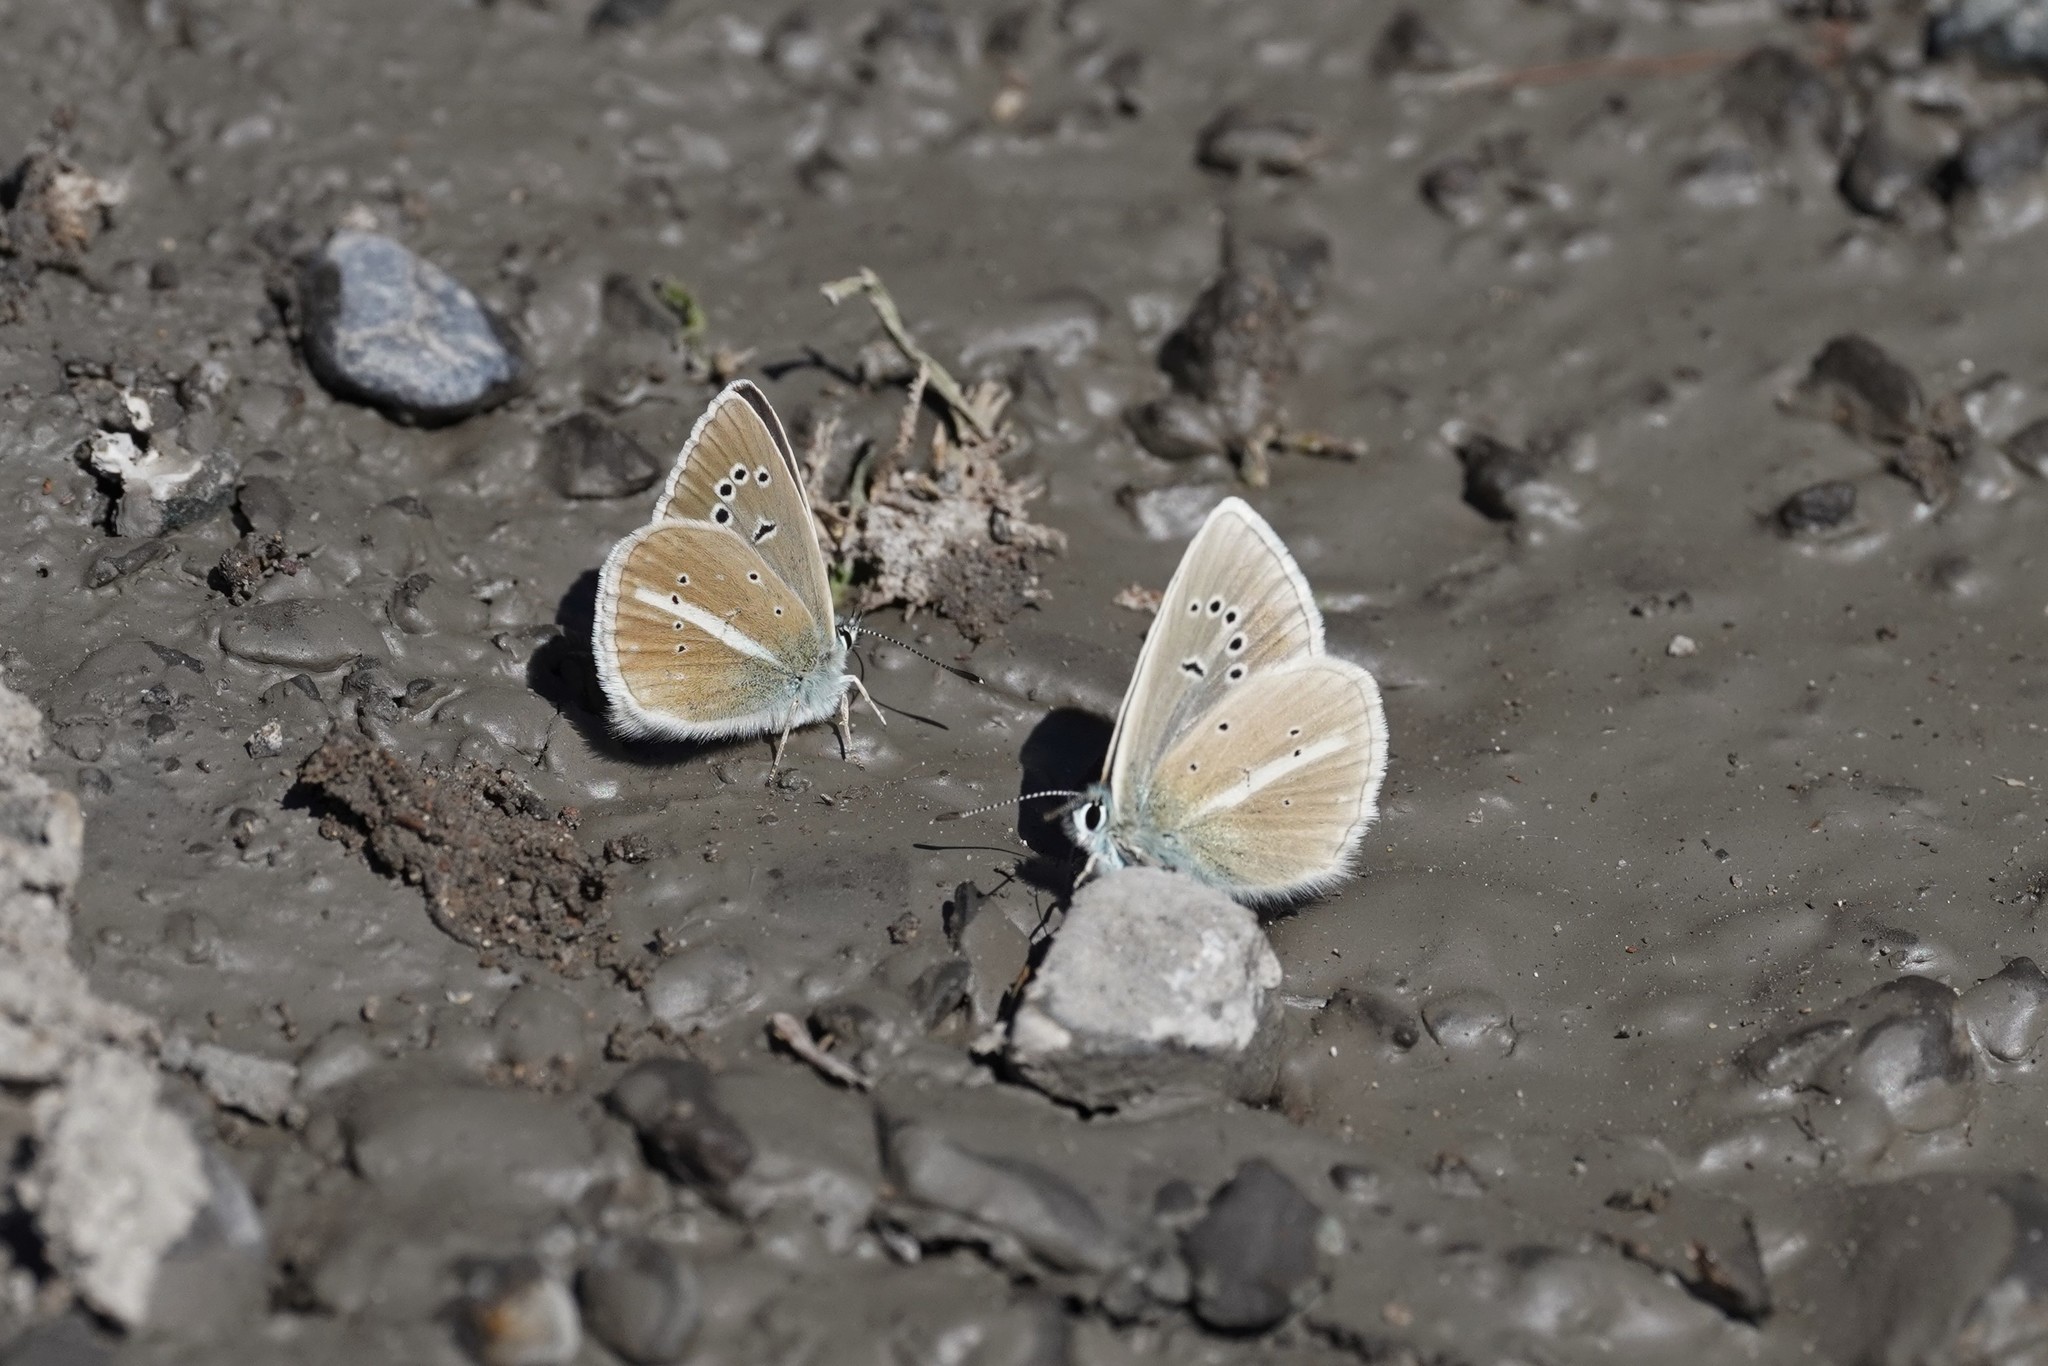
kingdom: Animalia
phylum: Arthropoda
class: Insecta
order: Lepidoptera
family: Lycaenidae
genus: Agrodiaetus
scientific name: Agrodiaetus damon
